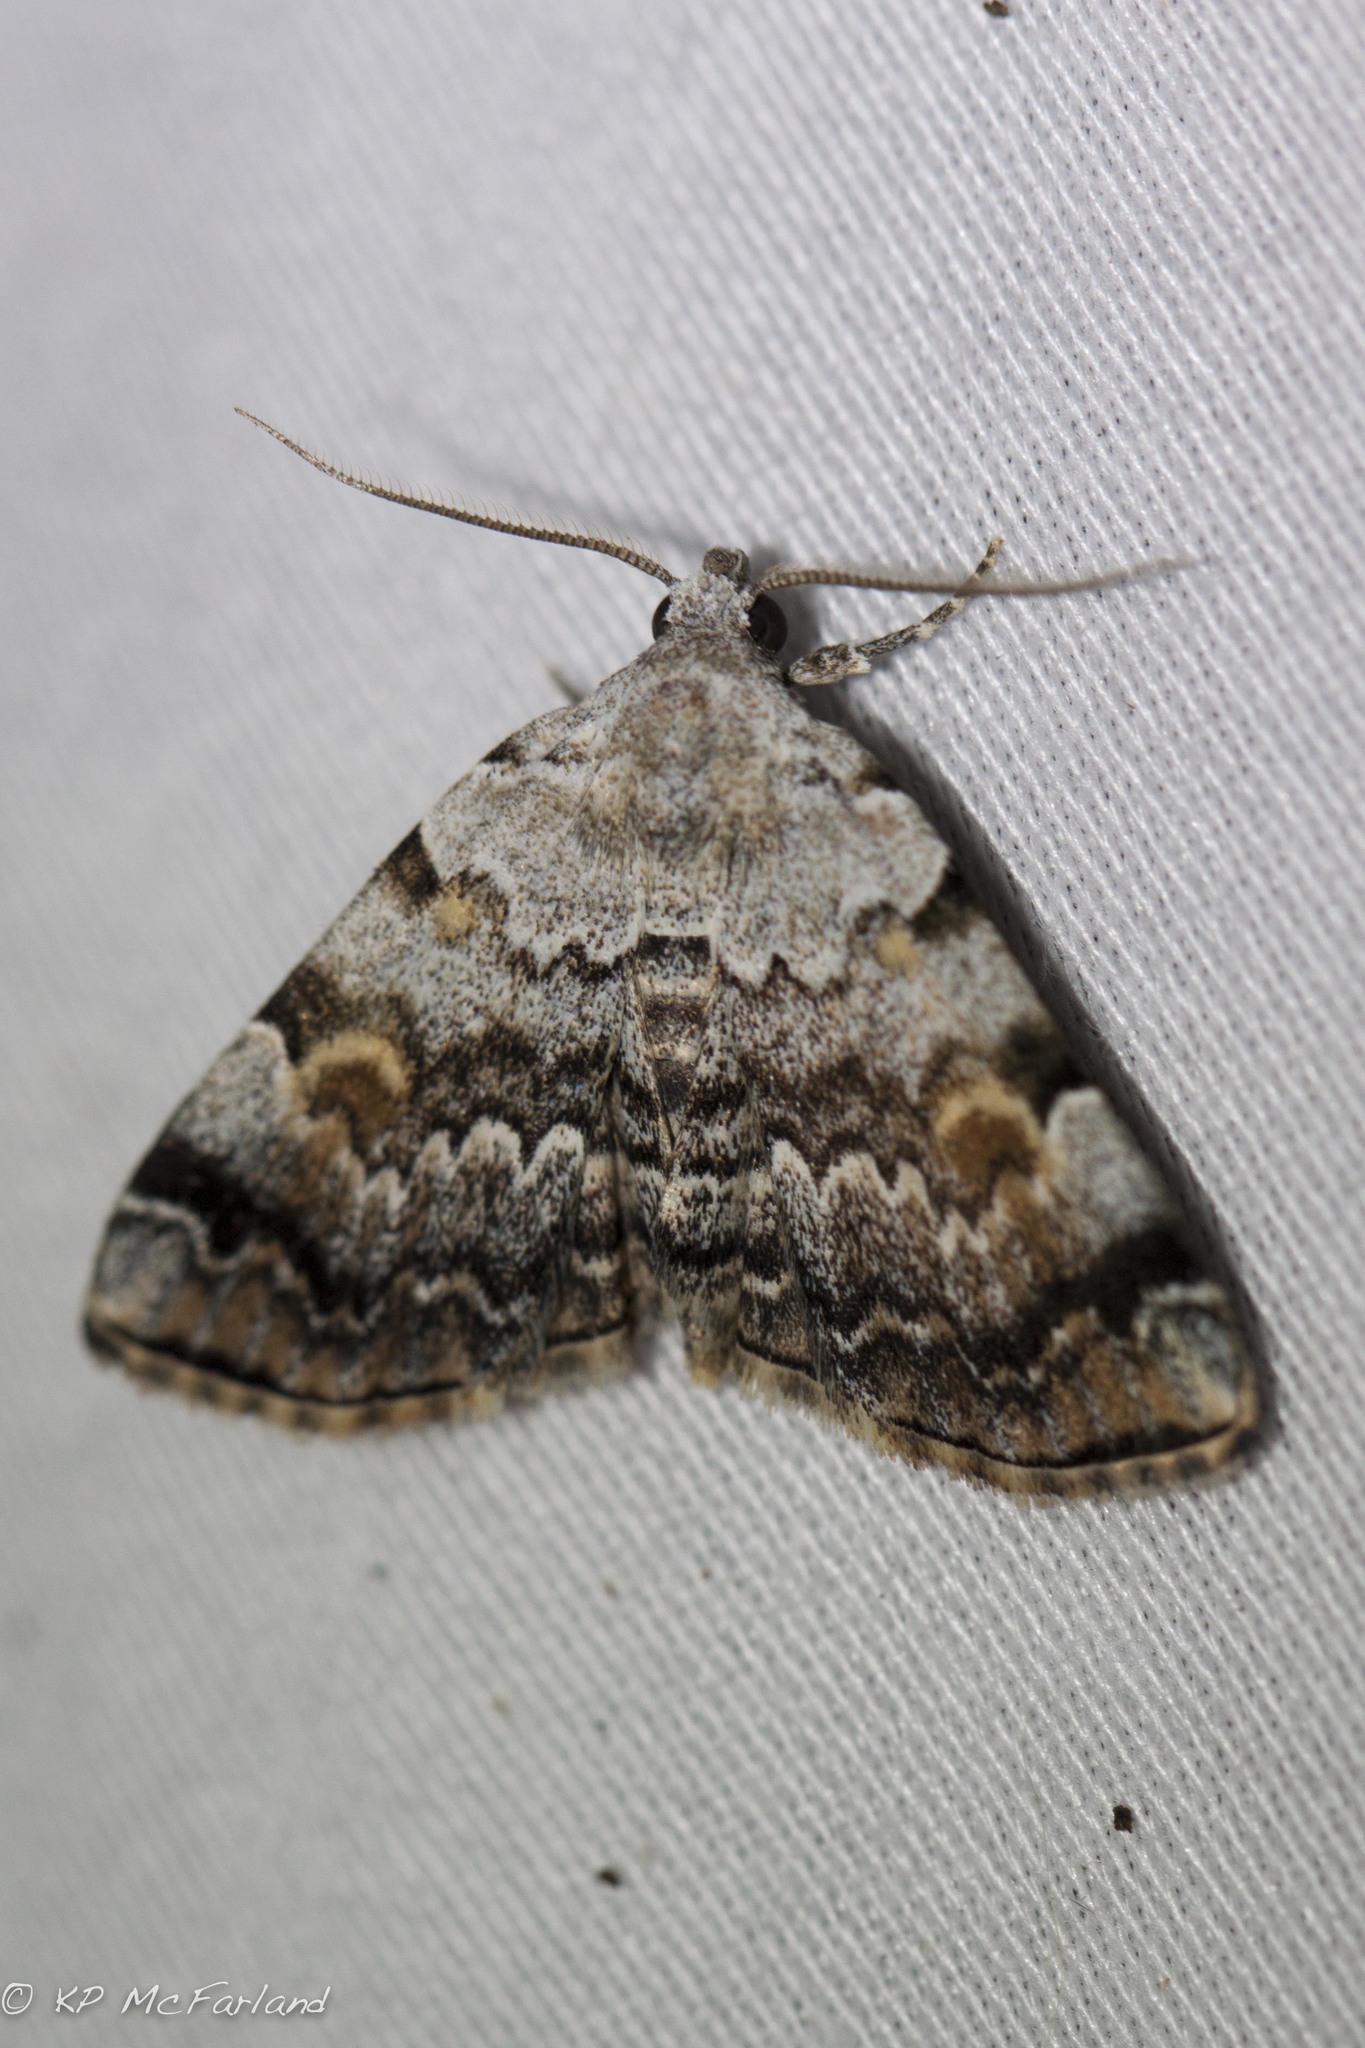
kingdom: Animalia
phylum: Arthropoda
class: Insecta
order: Lepidoptera
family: Erebidae
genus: Idia
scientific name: Idia americalis
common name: American idia moth
